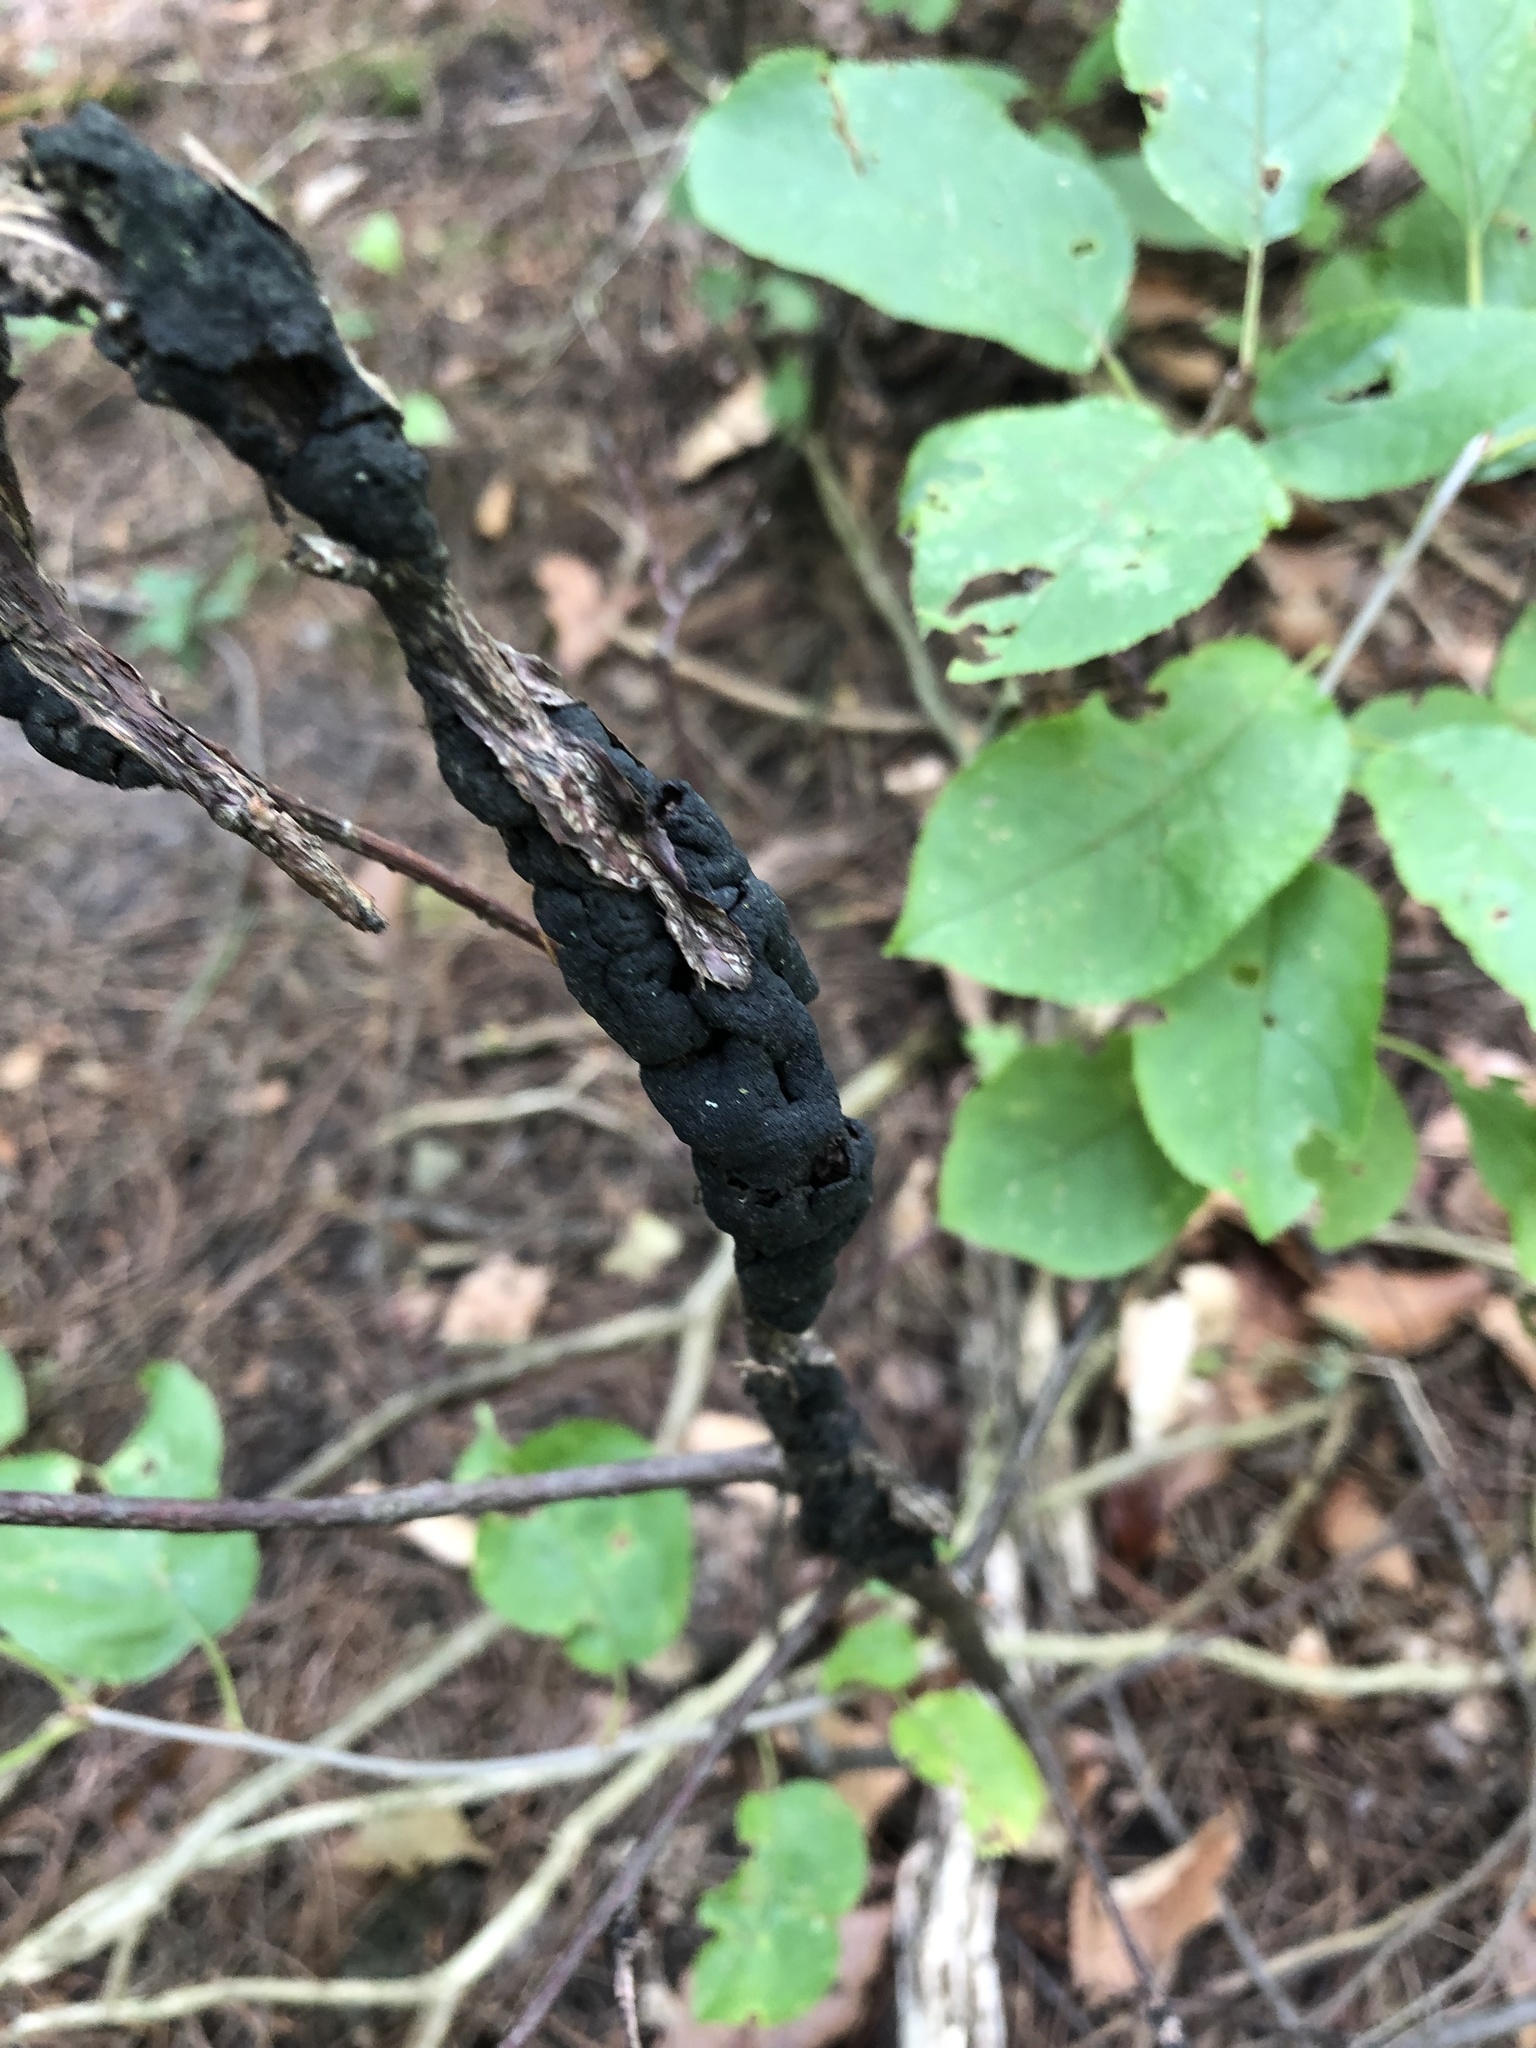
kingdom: Fungi
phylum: Ascomycota
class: Dothideomycetes
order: Venturiales
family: Venturiaceae
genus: Apiosporina
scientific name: Apiosporina morbosa
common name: Black knot
